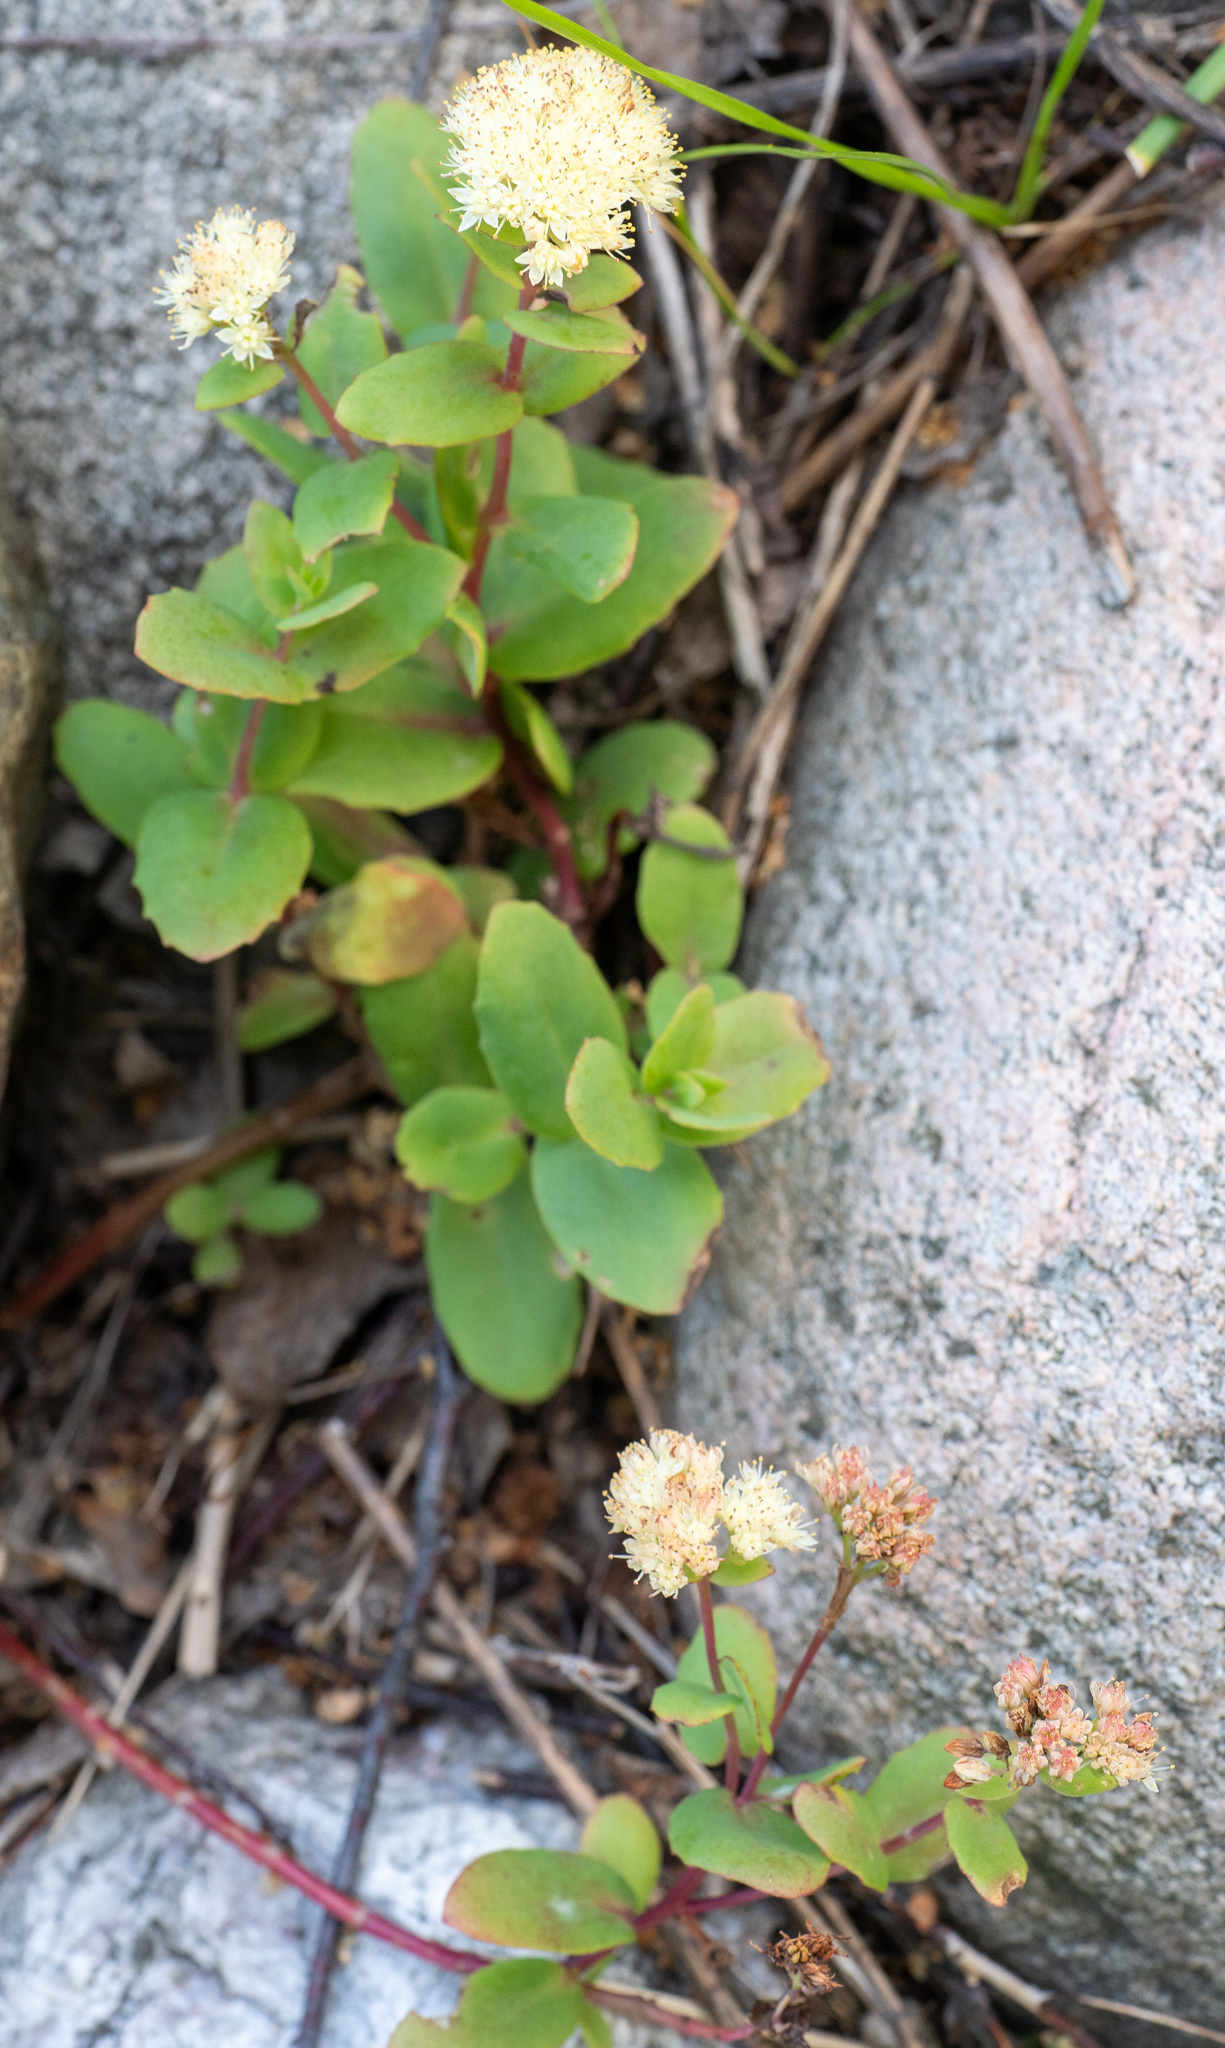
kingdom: Plantae
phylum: Tracheophyta
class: Magnoliopsida
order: Saxifragales
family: Crassulaceae
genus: Hylotelephium
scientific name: Hylotelephium maximum
